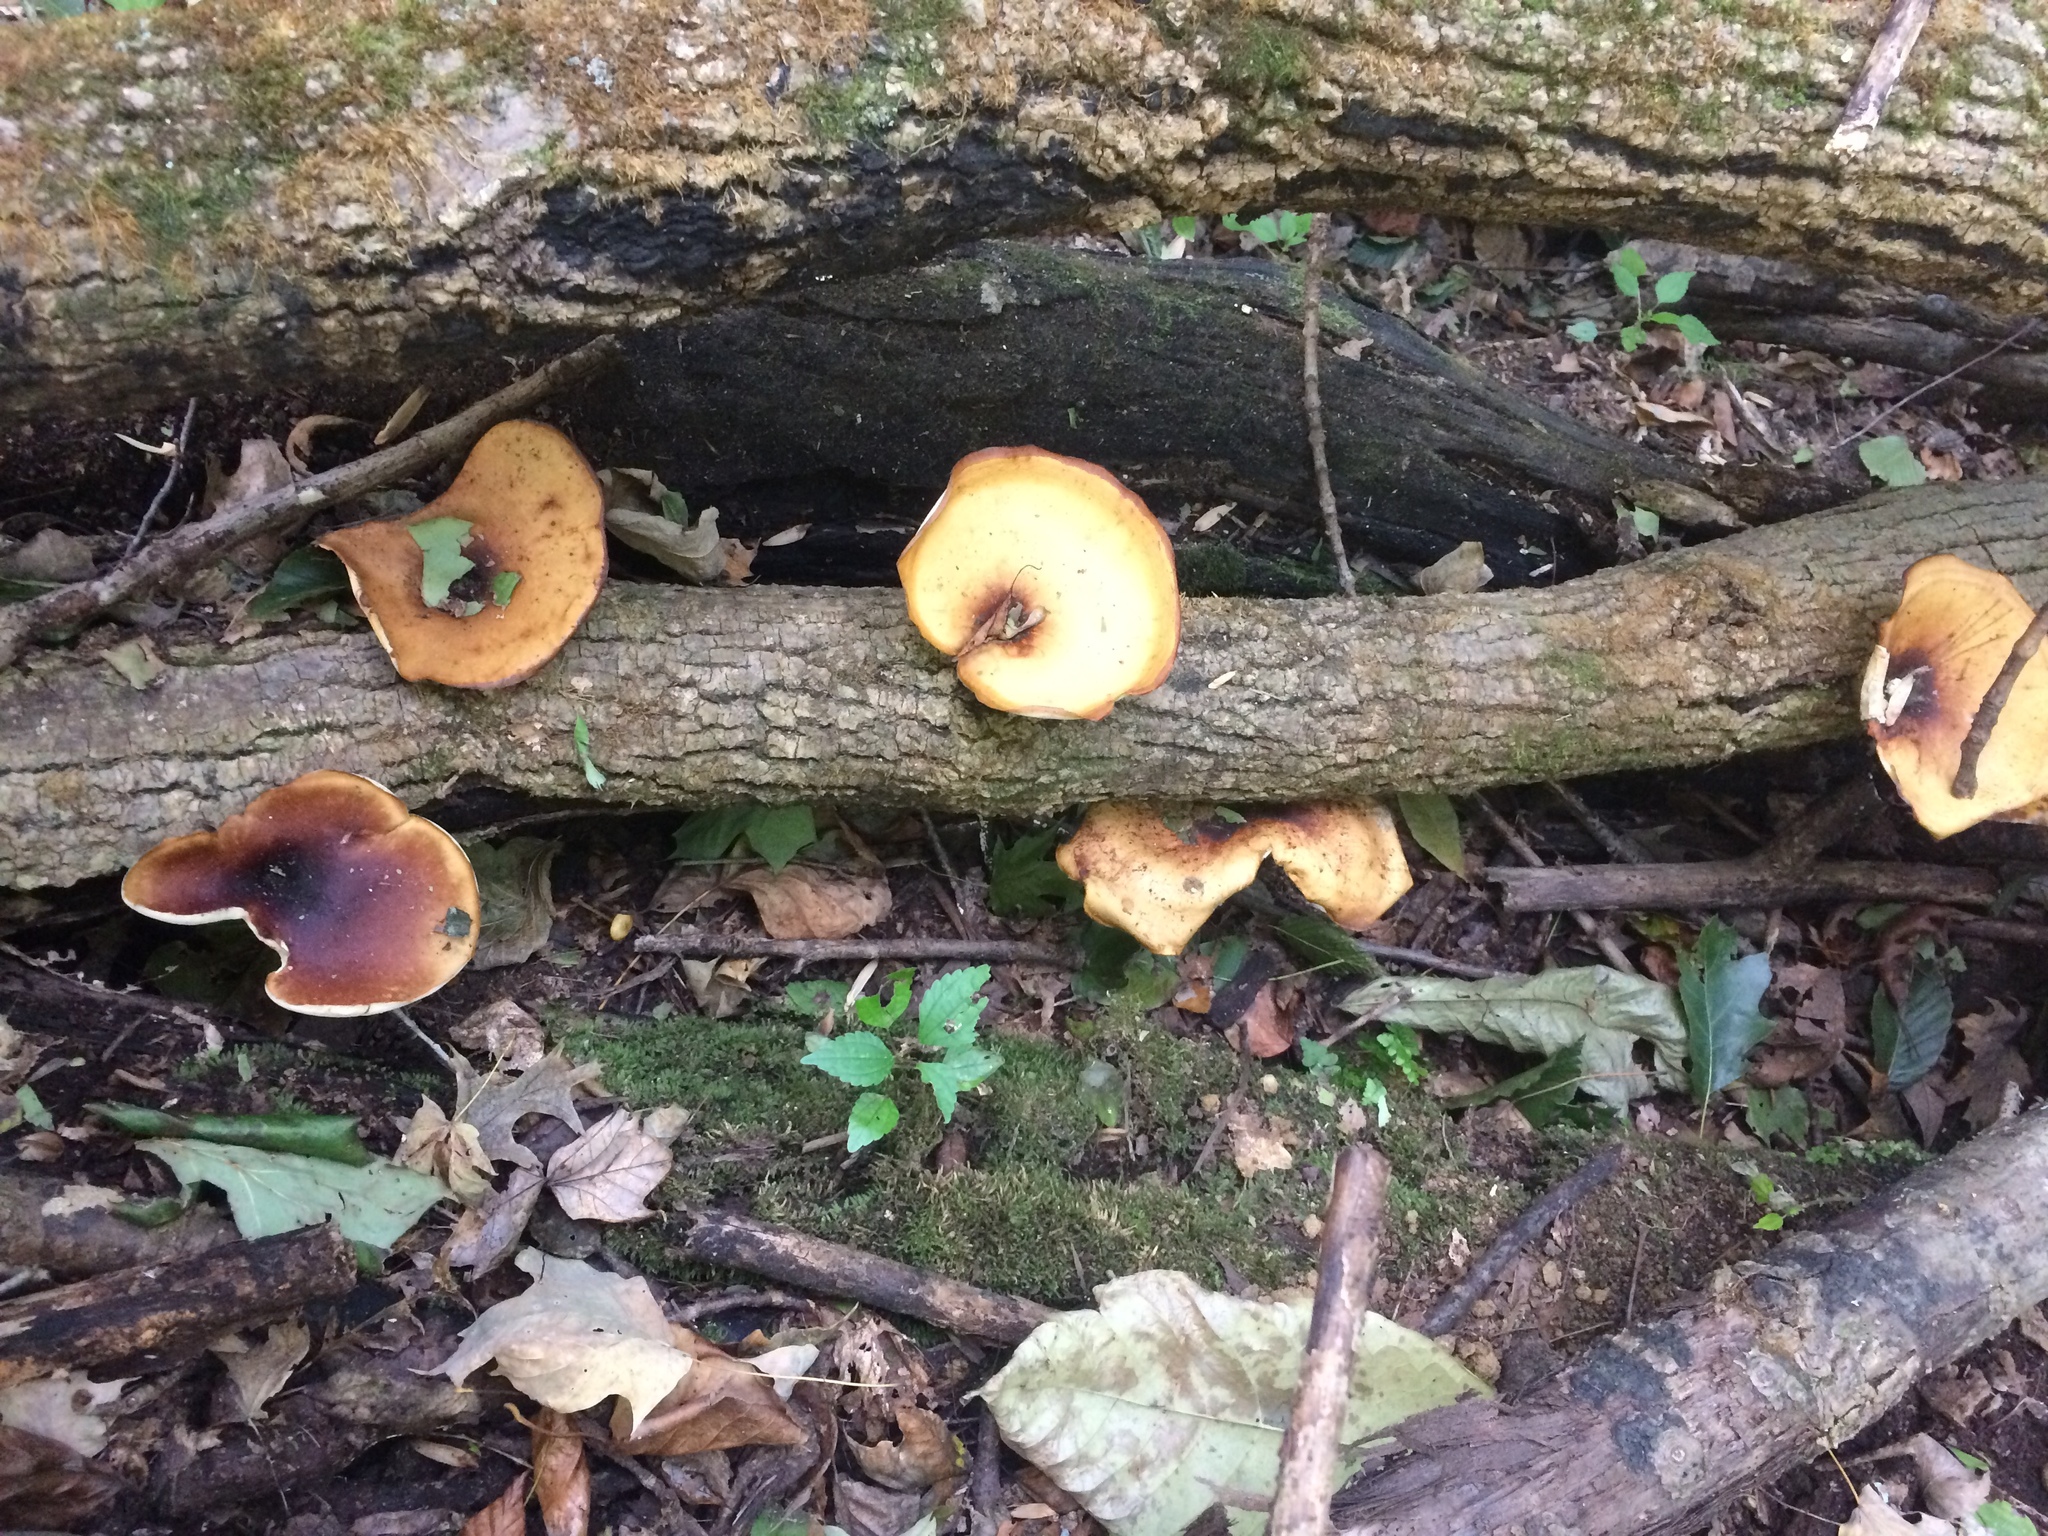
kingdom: Fungi
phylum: Basidiomycota
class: Agaricomycetes
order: Polyporales
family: Polyporaceae
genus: Picipes
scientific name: Picipes badius
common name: Bay polypore
